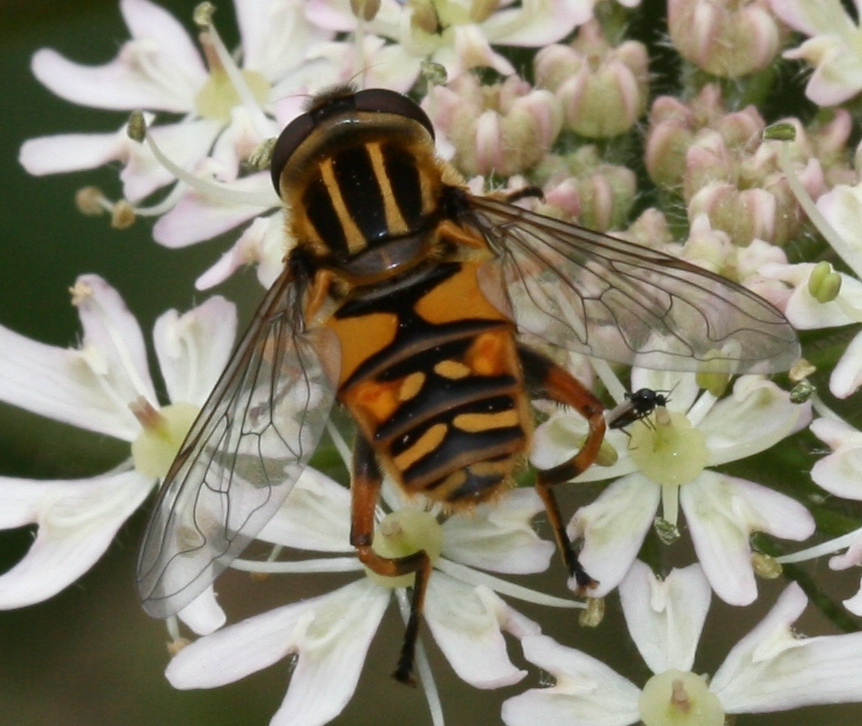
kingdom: Animalia
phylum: Arthropoda
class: Insecta
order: Diptera
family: Syrphidae
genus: Helophilus
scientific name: Helophilus pendulus
